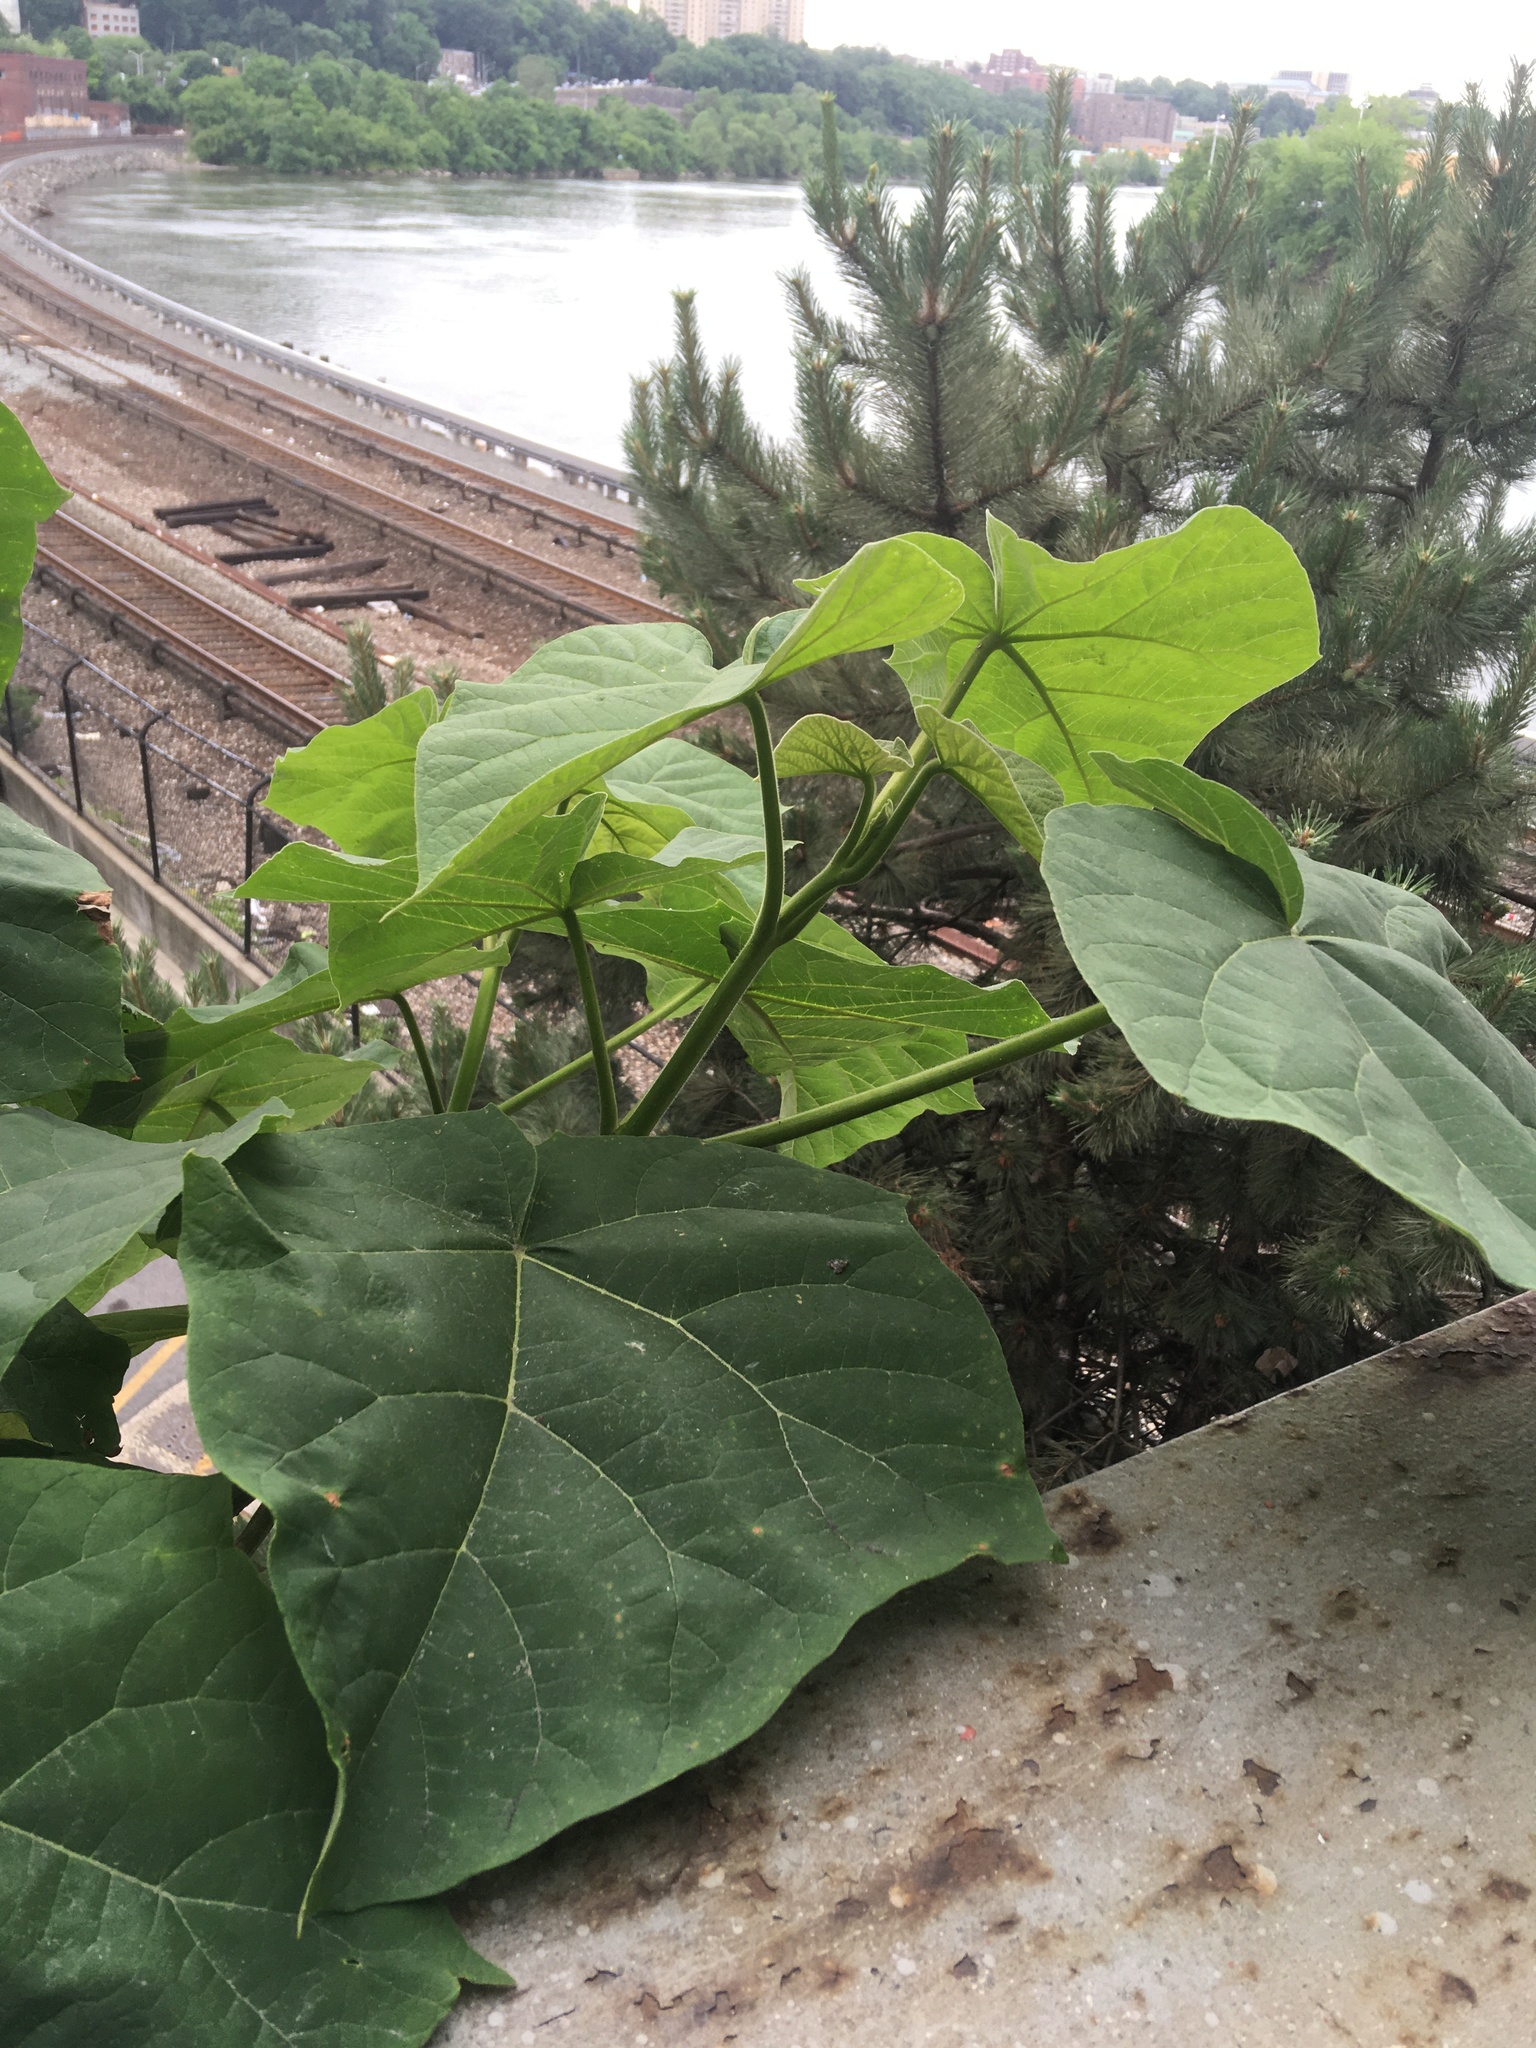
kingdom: Plantae
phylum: Tracheophyta
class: Magnoliopsida
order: Lamiales
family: Paulowniaceae
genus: Paulownia
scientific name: Paulownia tomentosa
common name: Foxglove-tree
